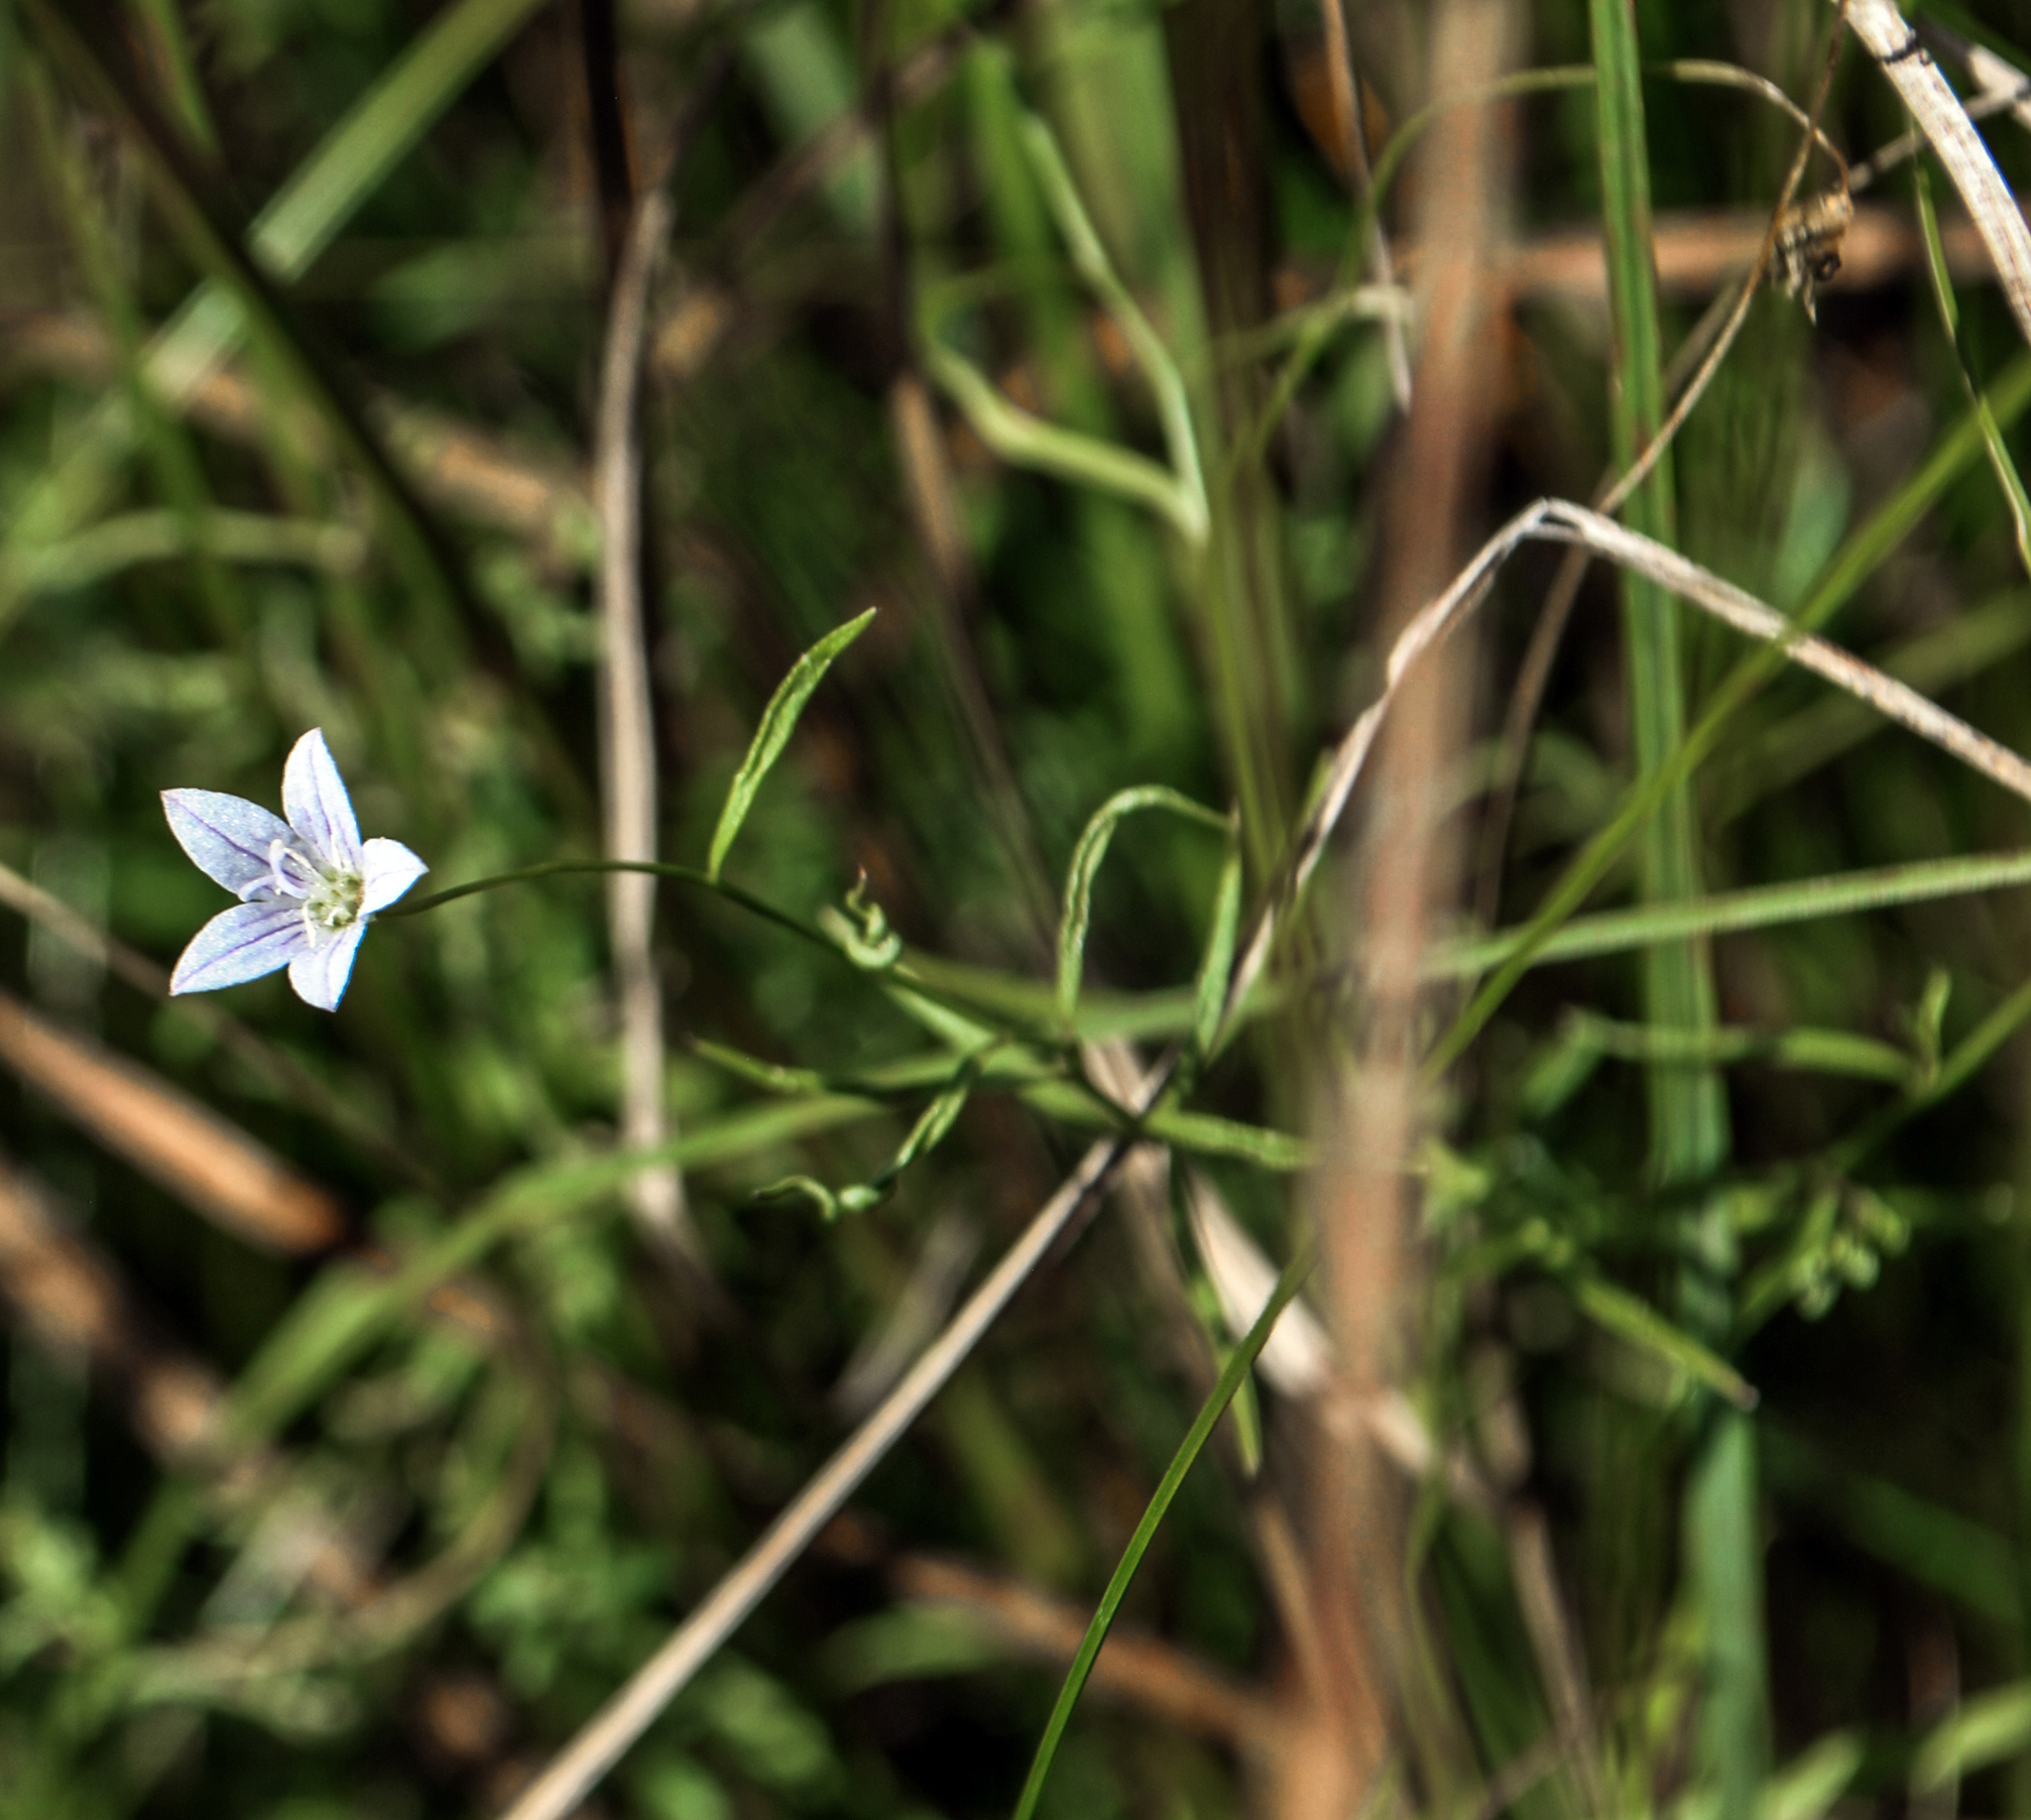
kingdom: Plantae
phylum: Tracheophyta
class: Magnoliopsida
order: Asterales
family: Campanulaceae
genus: Palustricodon
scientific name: Palustricodon aparinoides
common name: Bedstraw bellflower
